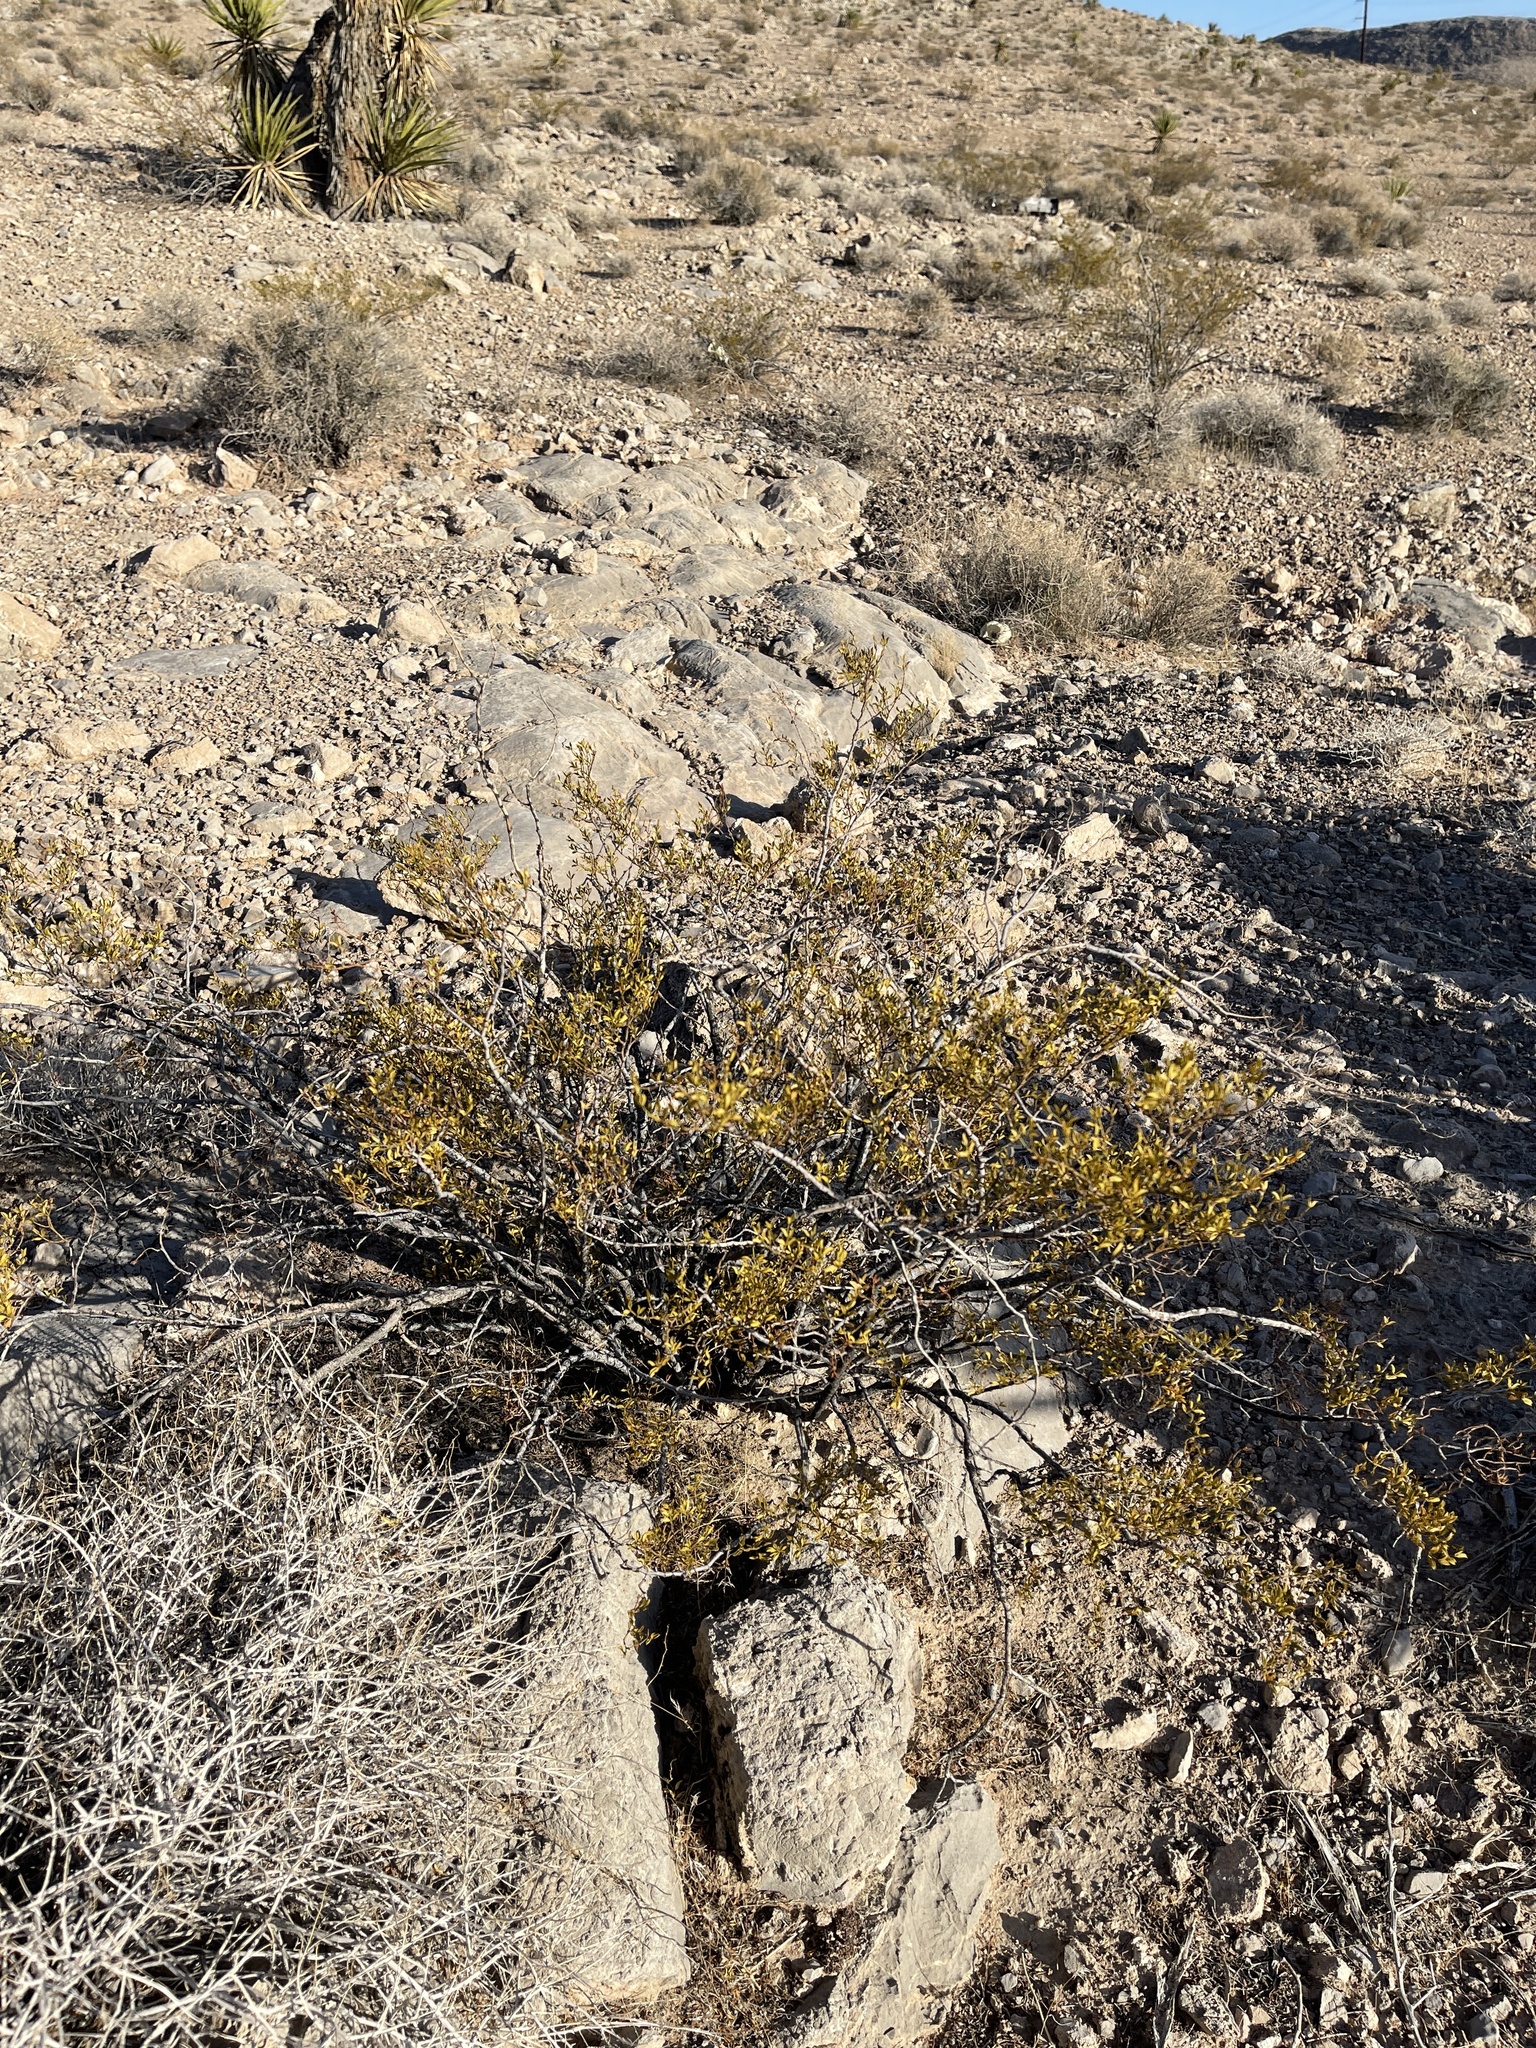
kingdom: Plantae
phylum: Tracheophyta
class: Magnoliopsida
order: Zygophyllales
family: Zygophyllaceae
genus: Larrea
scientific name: Larrea tridentata
